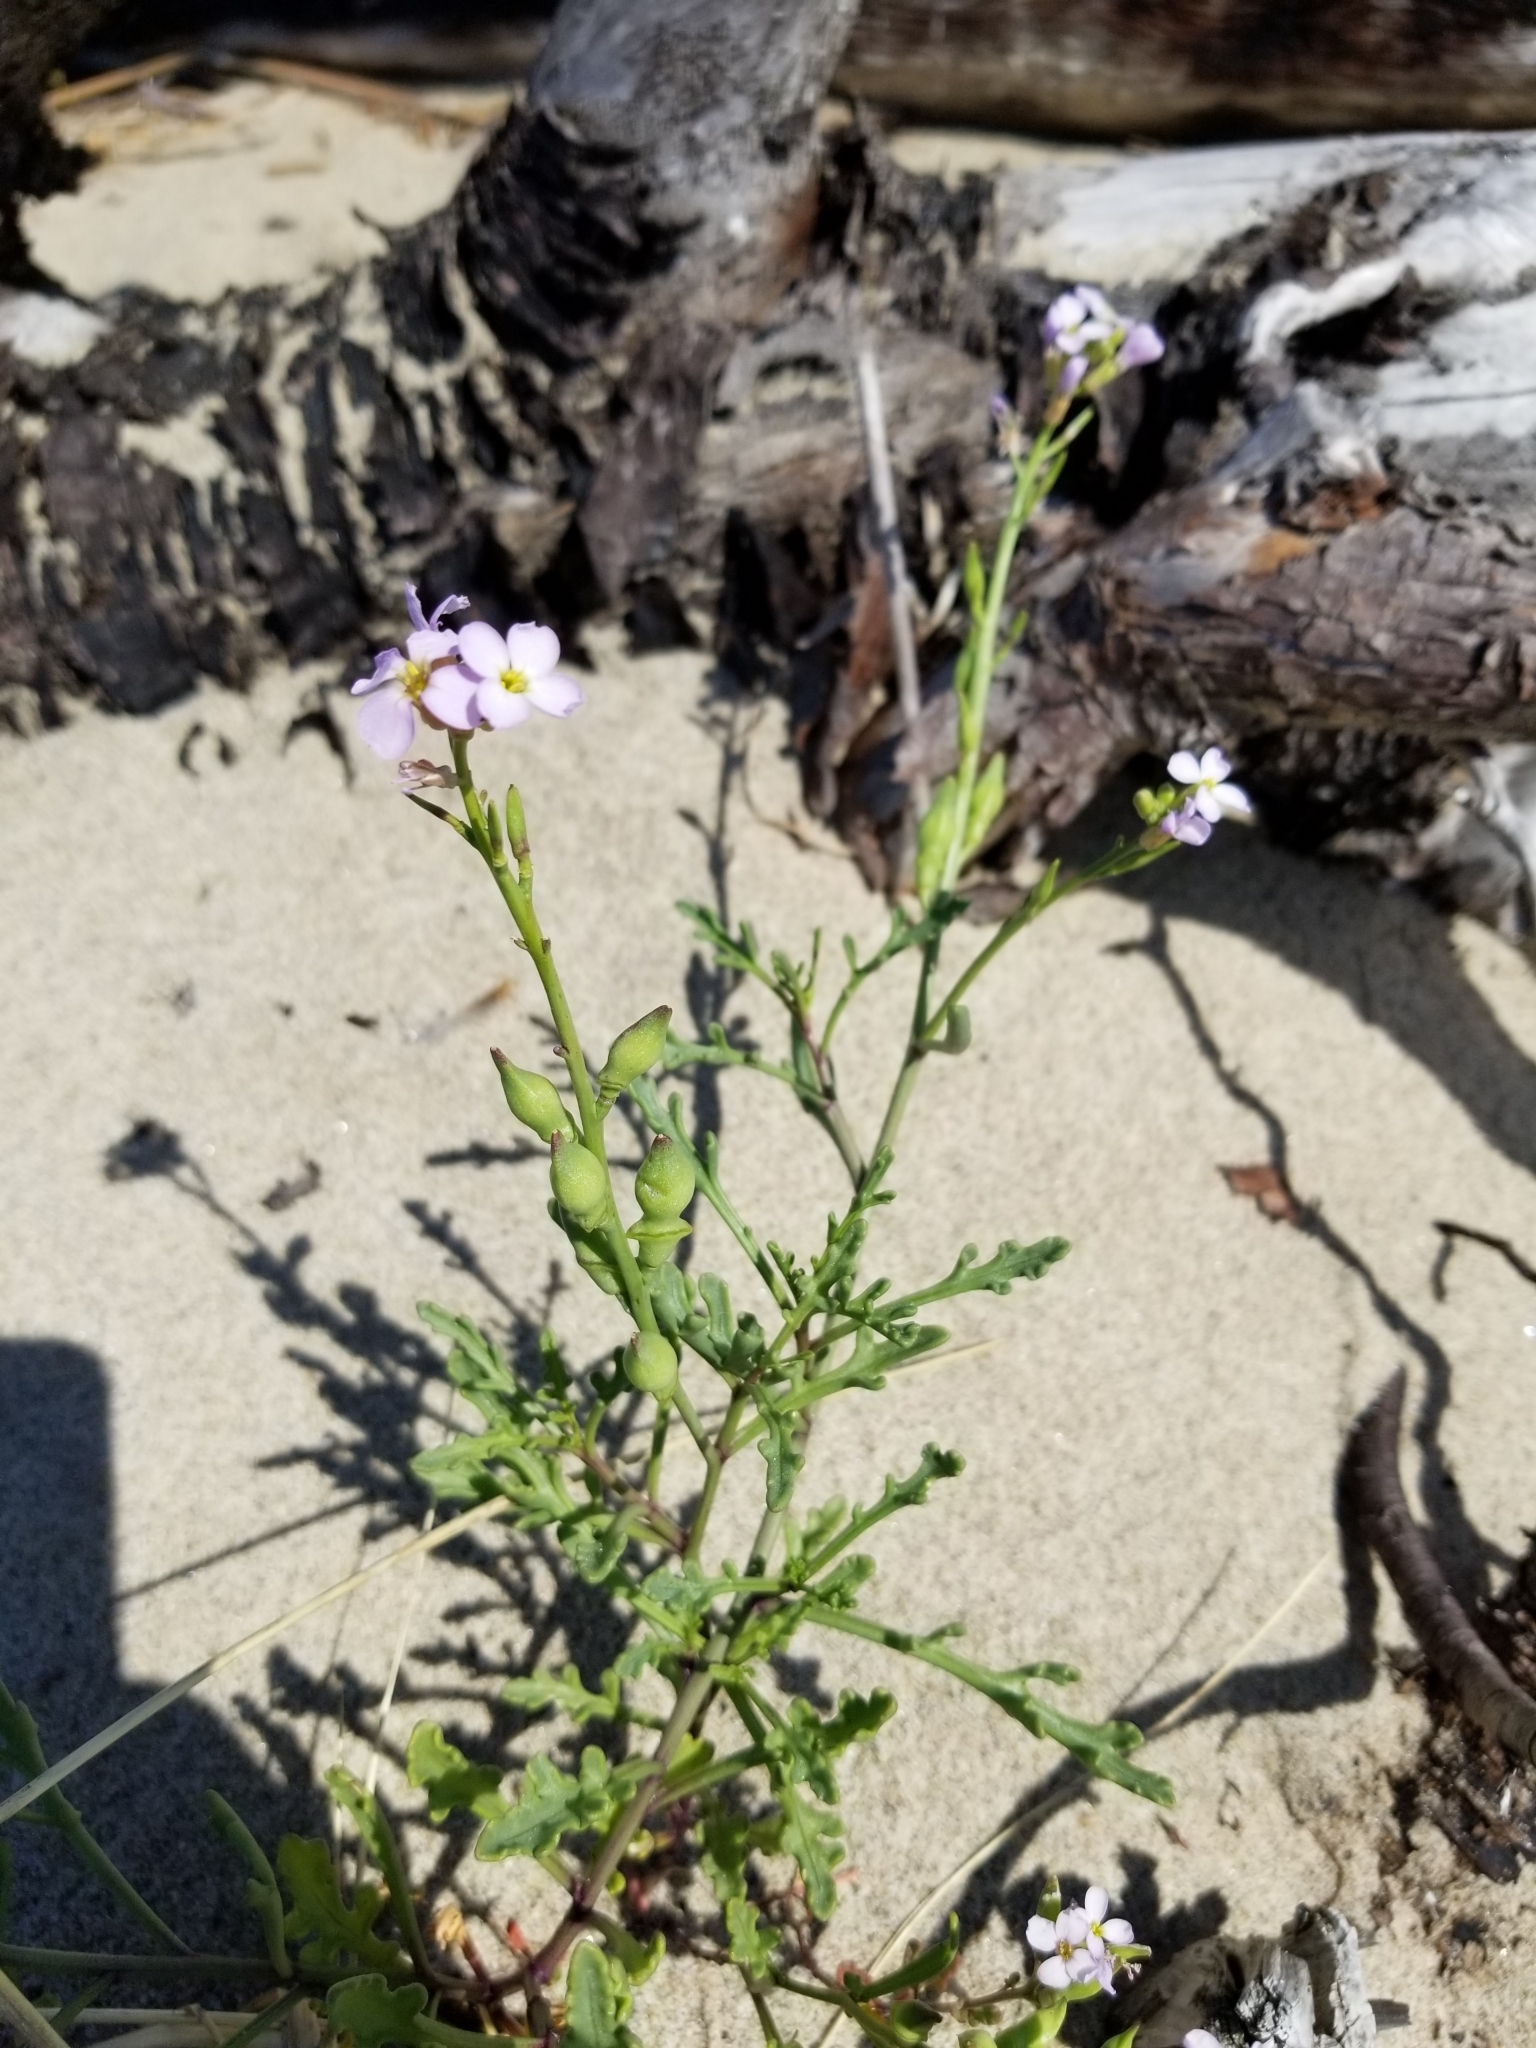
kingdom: Plantae
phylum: Tracheophyta
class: Magnoliopsida
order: Brassicales
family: Brassicaceae
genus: Cakile
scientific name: Cakile maritima
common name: Sea rocket
